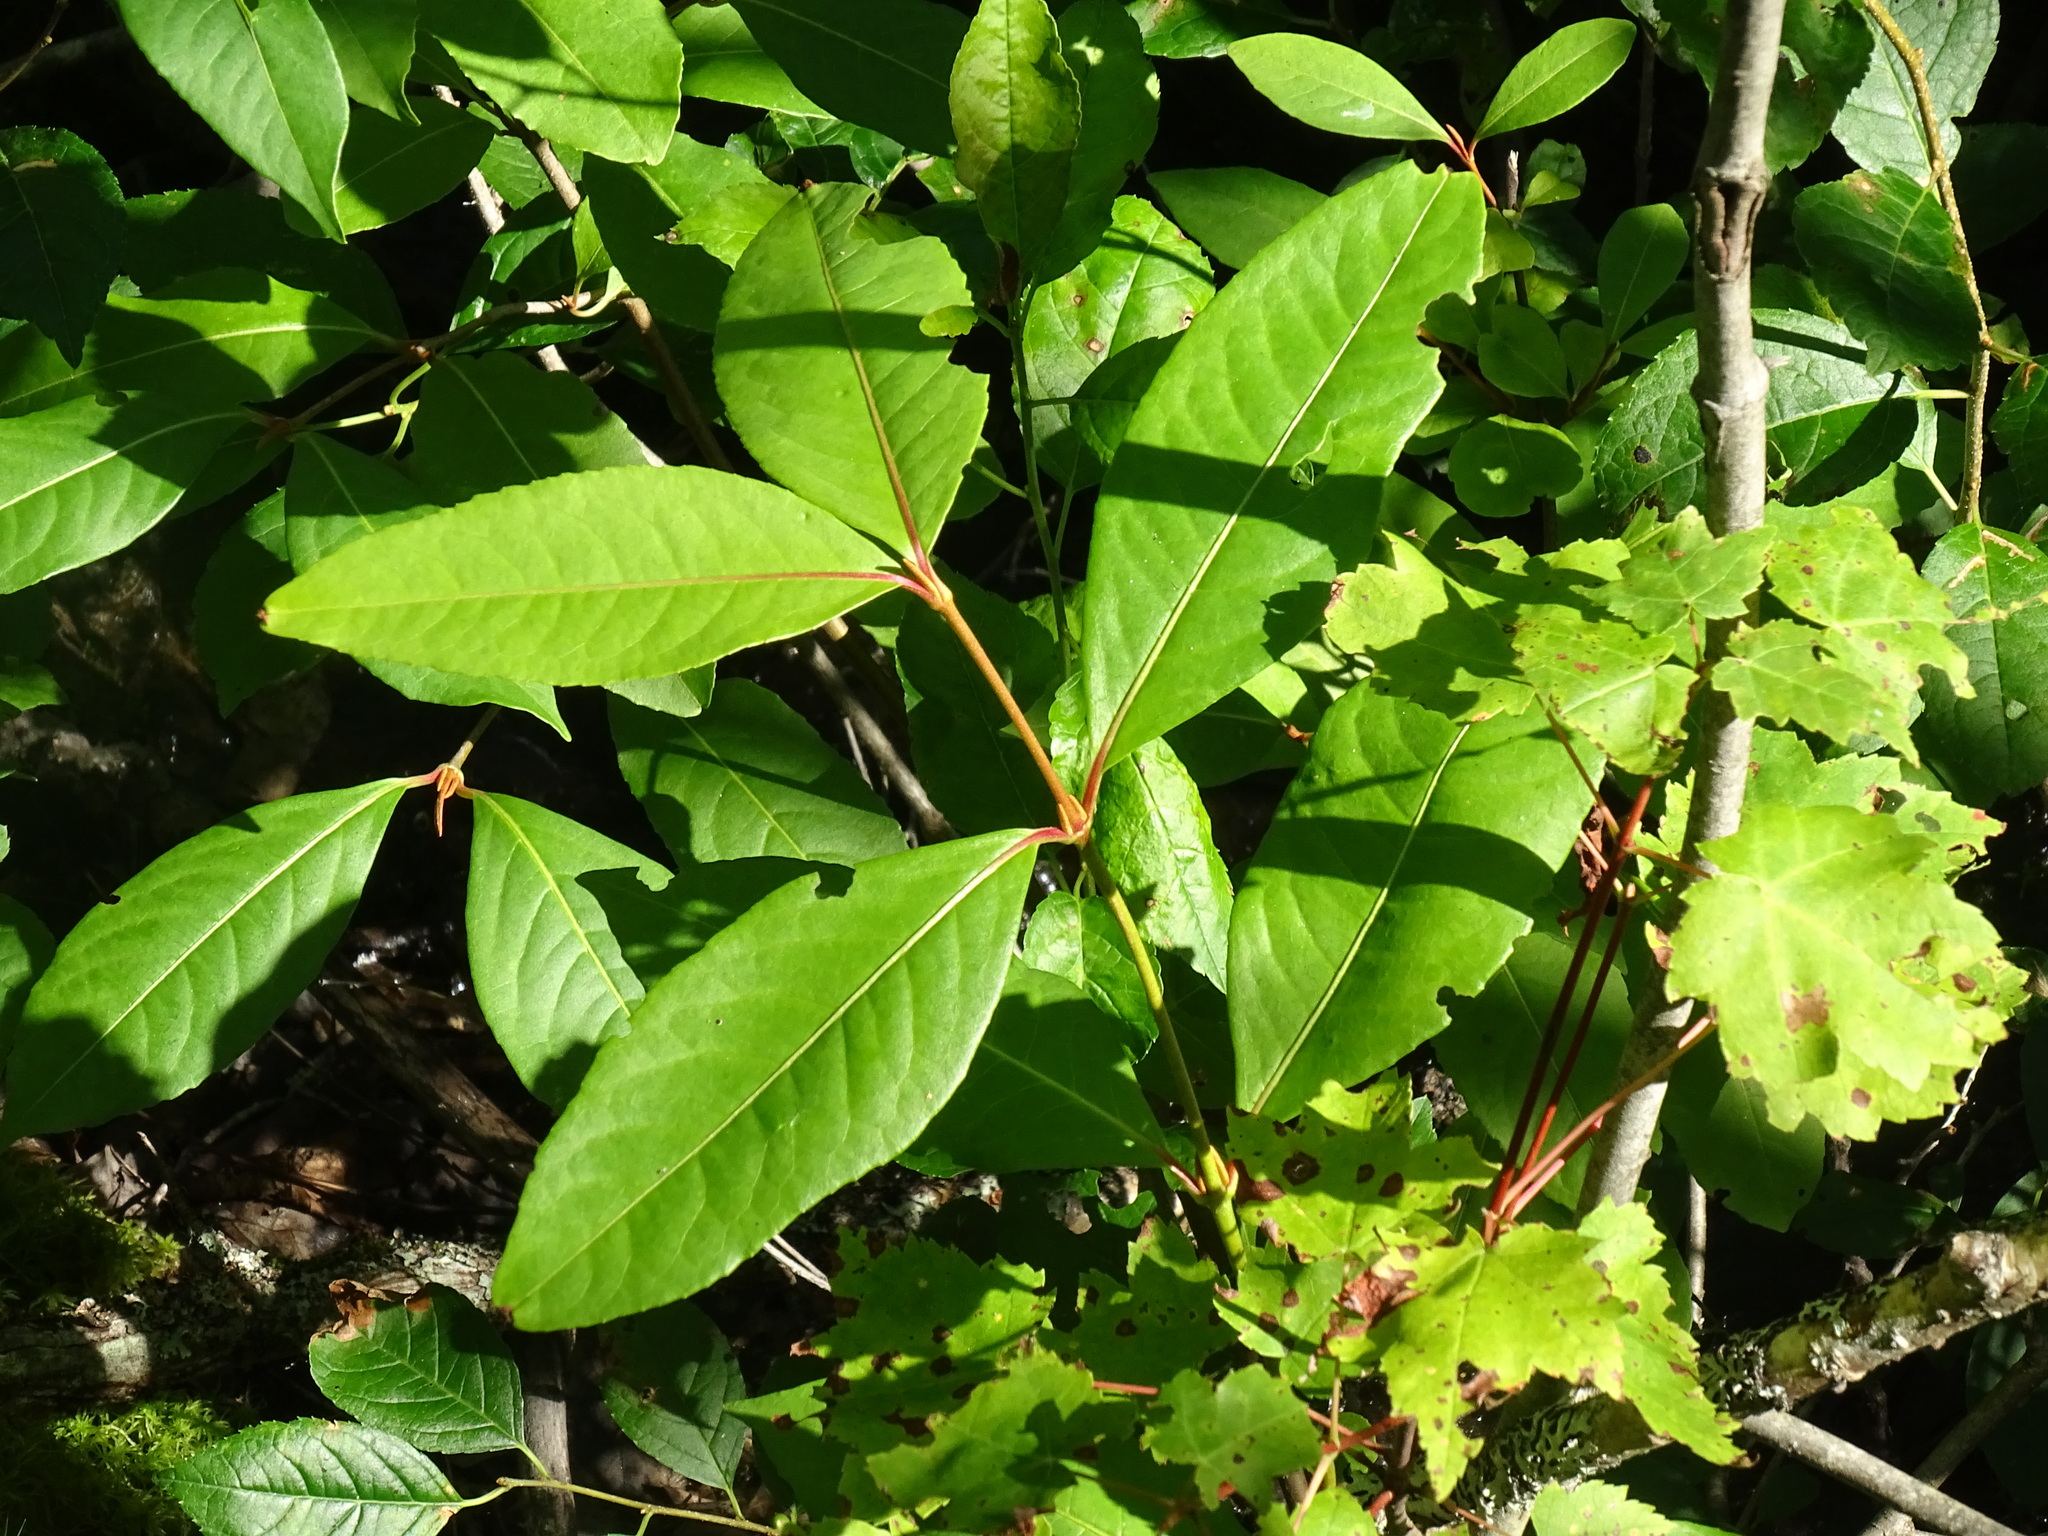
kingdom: Plantae
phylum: Tracheophyta
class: Magnoliopsida
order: Dipsacales
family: Viburnaceae
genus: Viburnum
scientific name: Viburnum cassinoides
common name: Swamp haw
